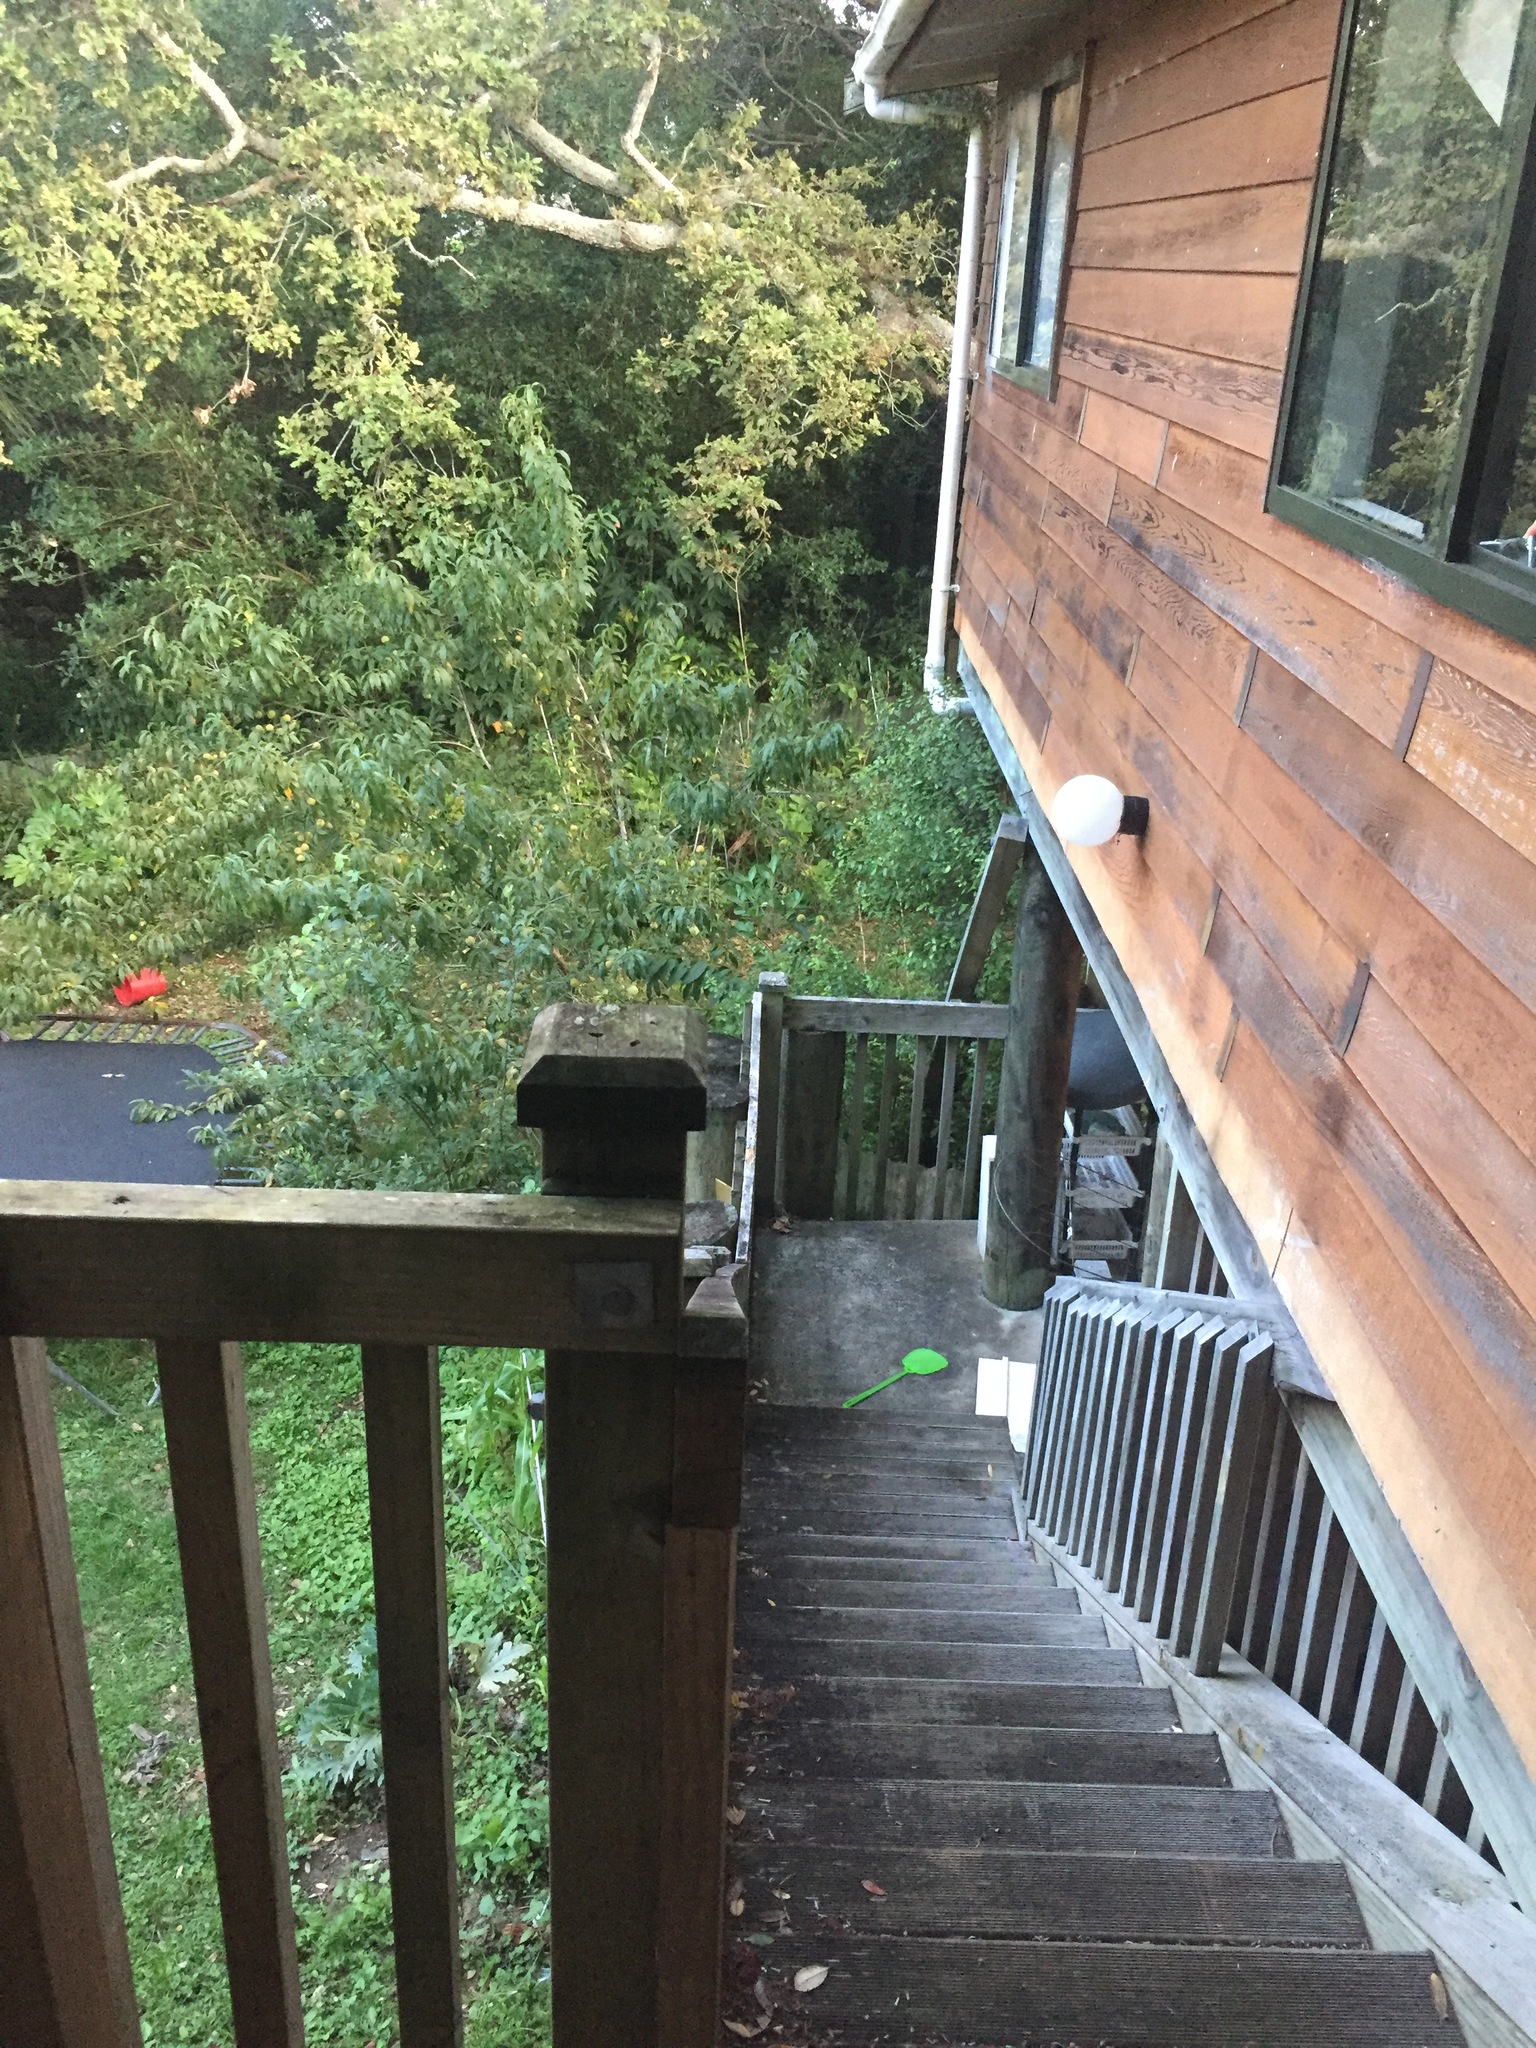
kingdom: Fungi
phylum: Ascomycota
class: Lecanoromycetes
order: Lecanorales
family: Byssolomataceae
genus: Byssoloma
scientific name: Byssoloma
